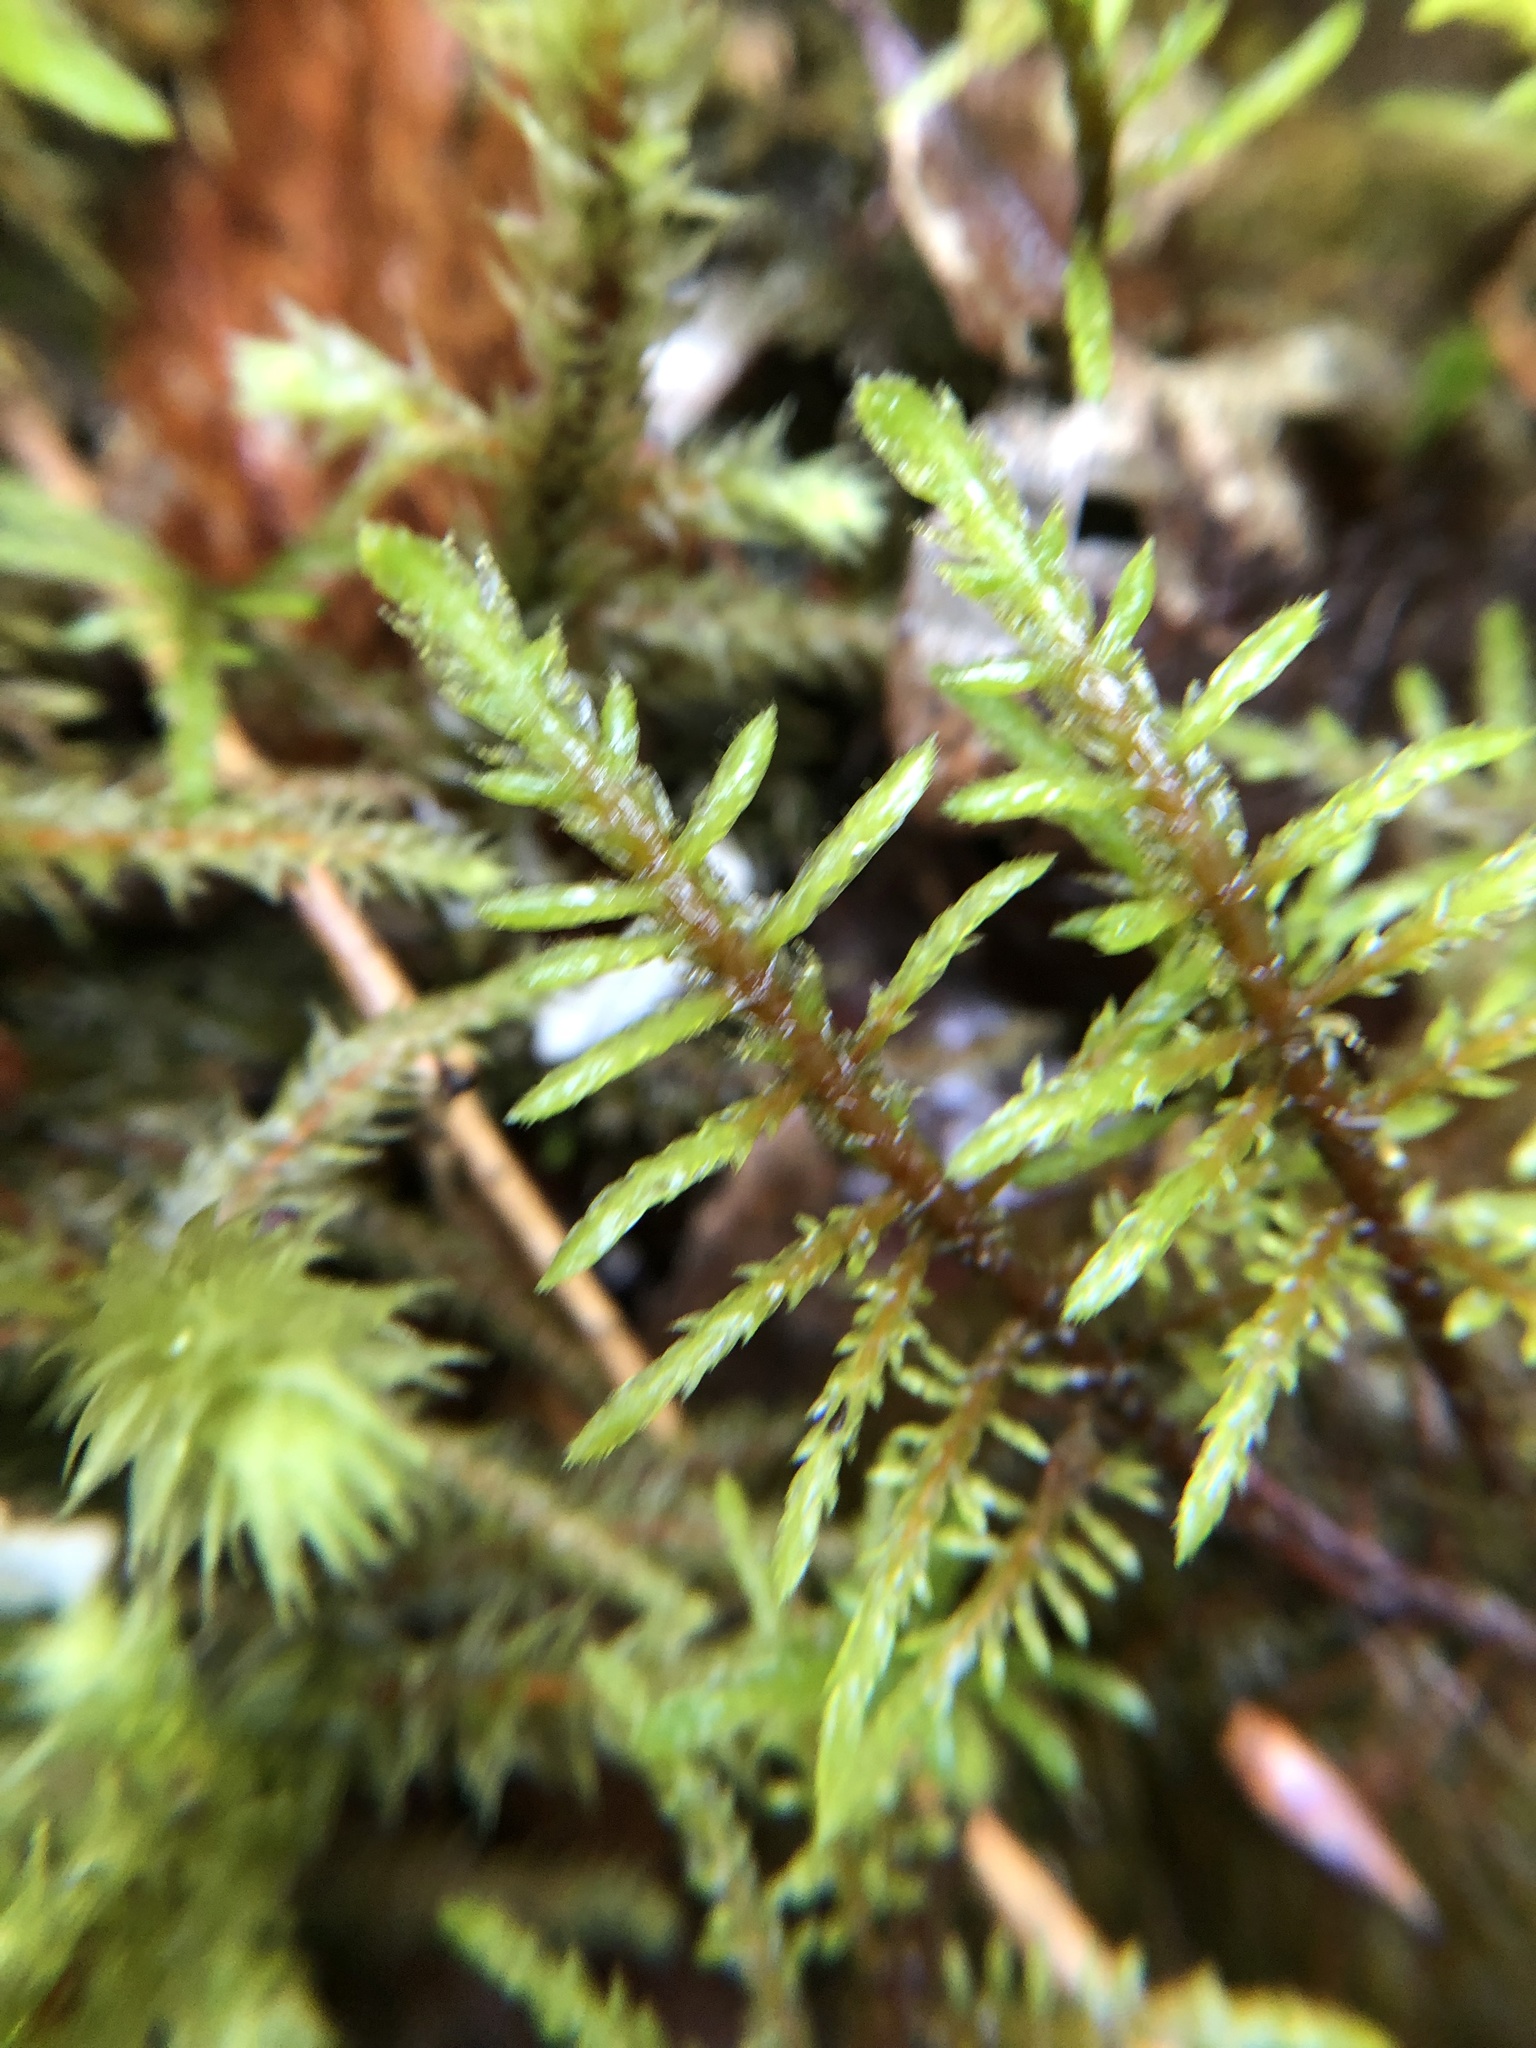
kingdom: Plantae
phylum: Bryophyta
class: Bryopsida
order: Hypnales
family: Hylocomiaceae
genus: Hylocomium
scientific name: Hylocomium splendens
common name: Stairstep moss
